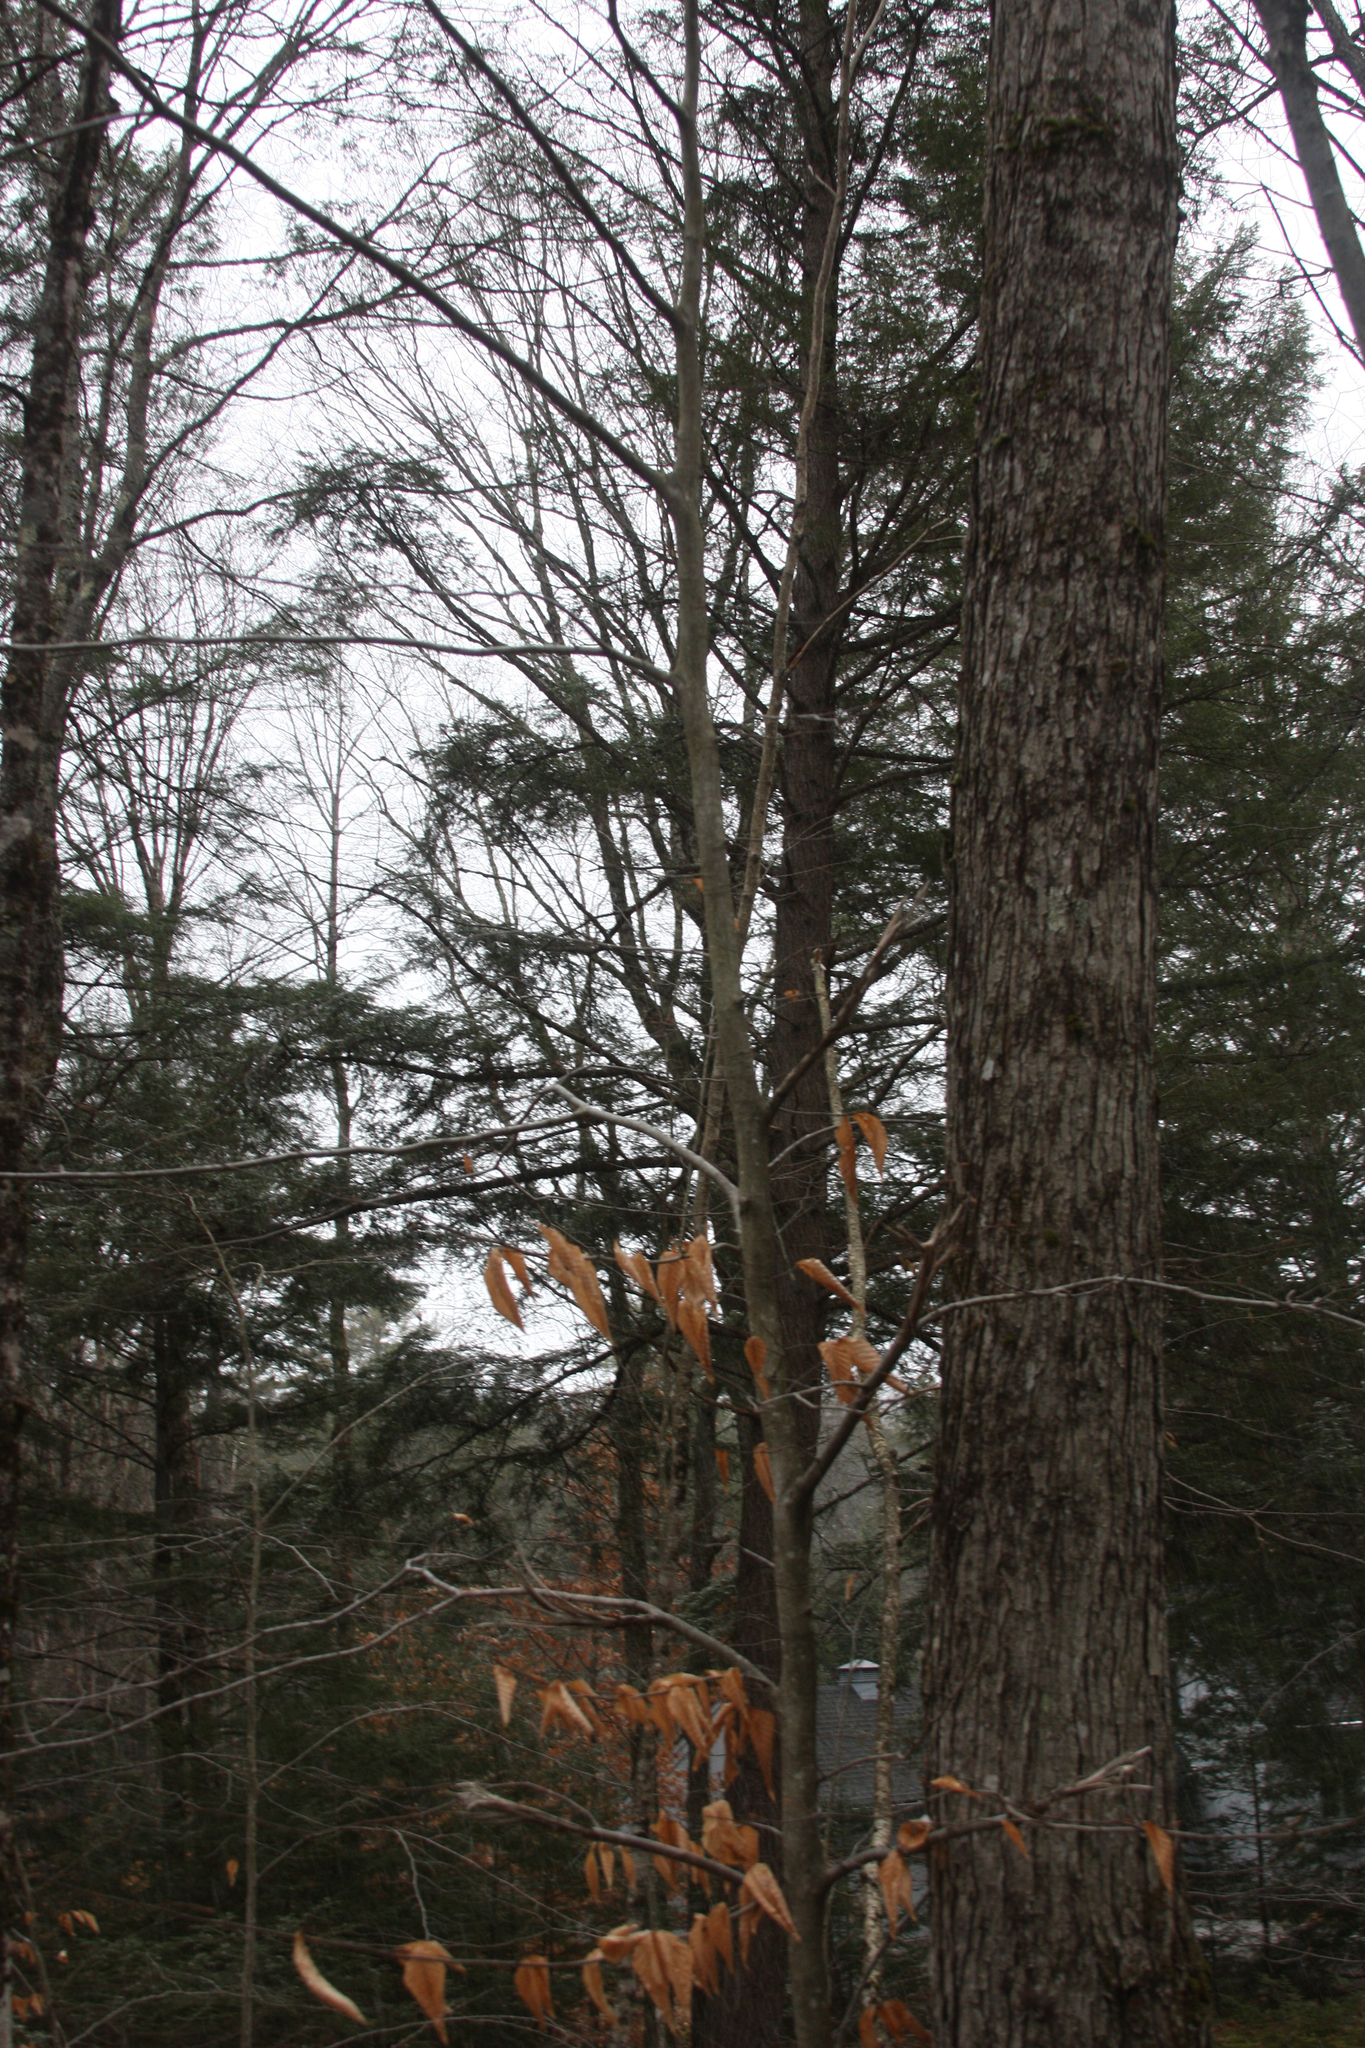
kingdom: Plantae
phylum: Tracheophyta
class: Magnoliopsida
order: Fagales
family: Fagaceae
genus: Fagus
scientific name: Fagus grandifolia
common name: American beech
